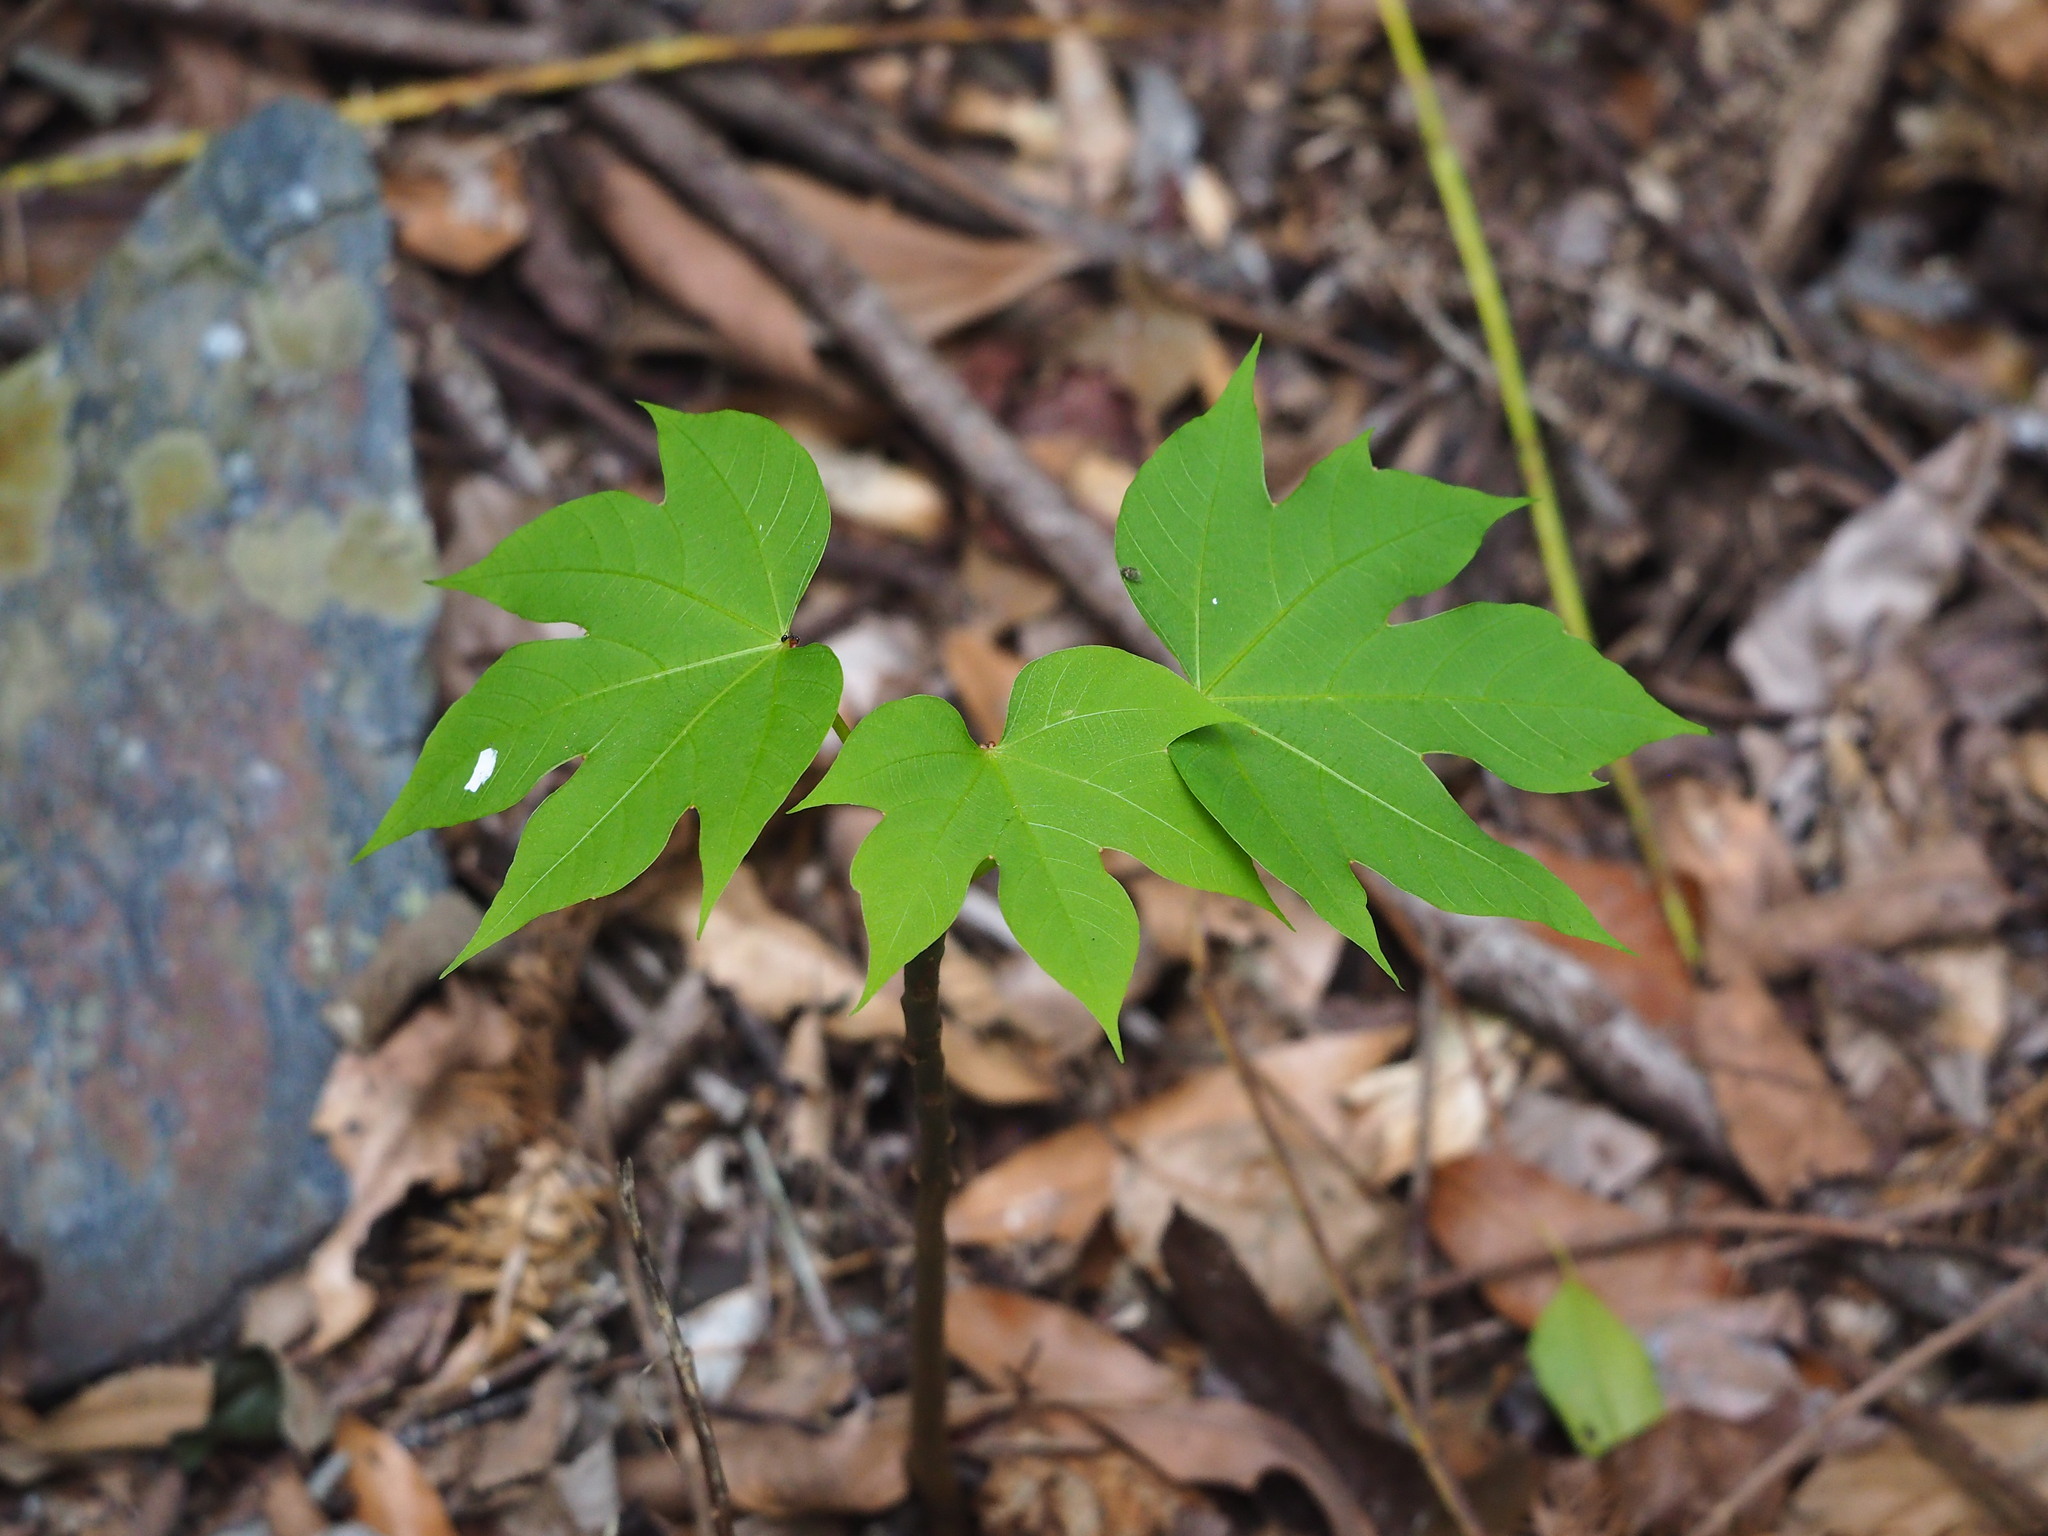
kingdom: Plantae
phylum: Tracheophyta
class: Magnoliopsida
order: Malpighiales
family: Euphorbiaceae
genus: Vernicia
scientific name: Vernicia montana
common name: Mu oil tree
